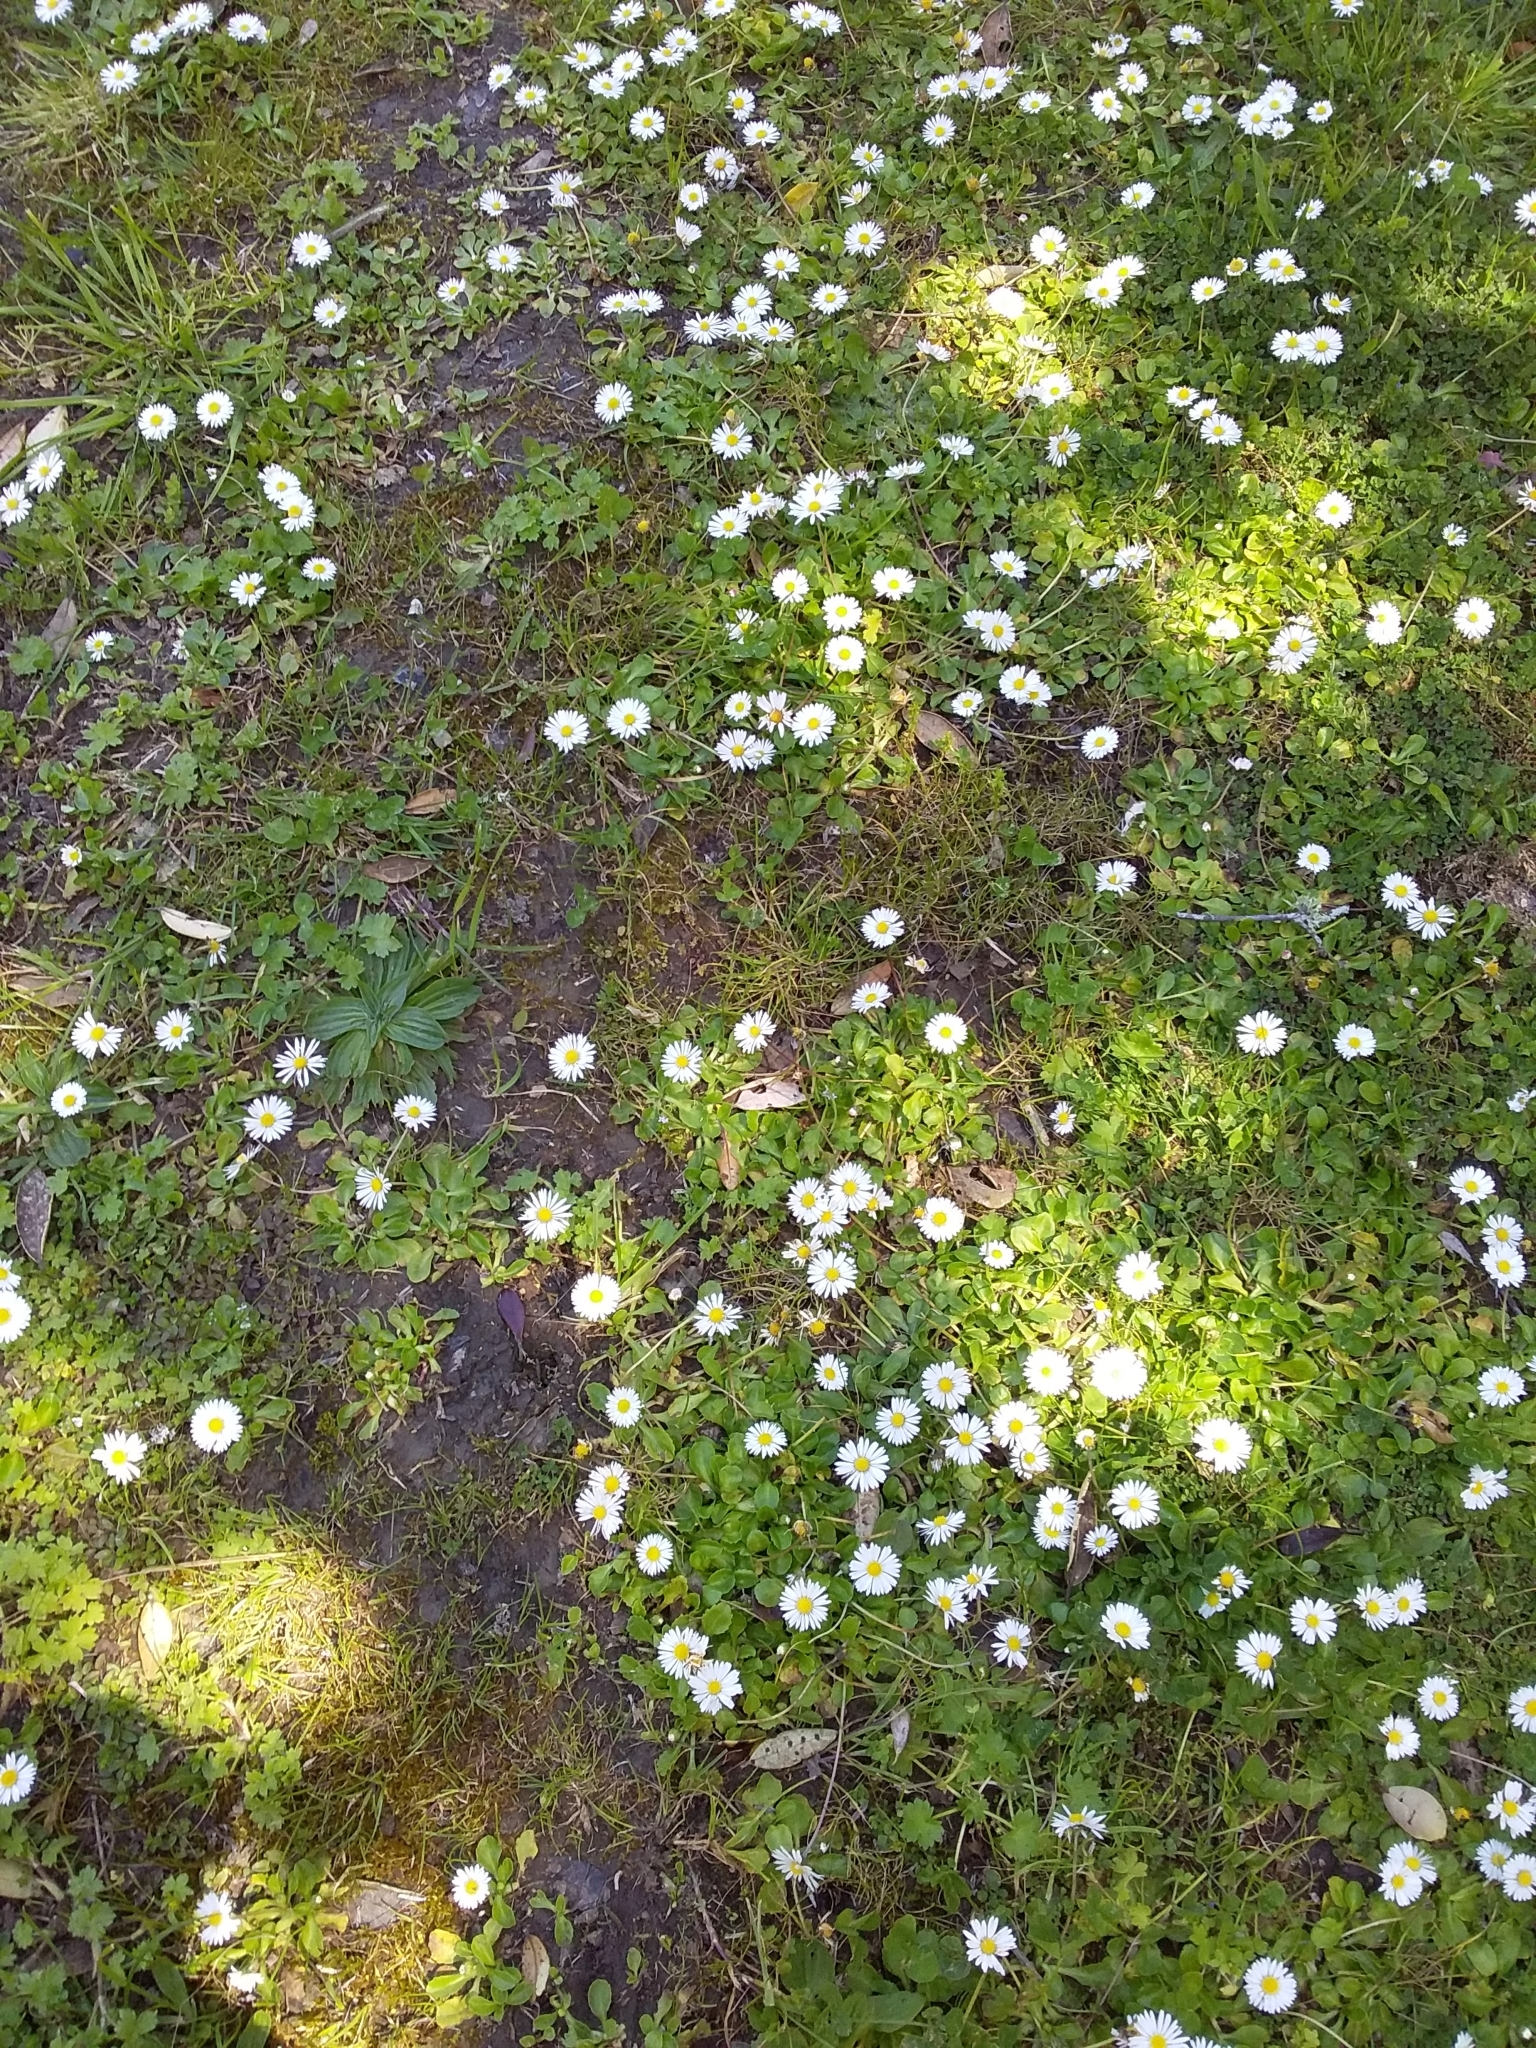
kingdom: Plantae
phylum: Tracheophyta
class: Magnoliopsida
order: Asterales
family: Asteraceae
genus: Bellis
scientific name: Bellis perennis
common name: Lawndaisy
